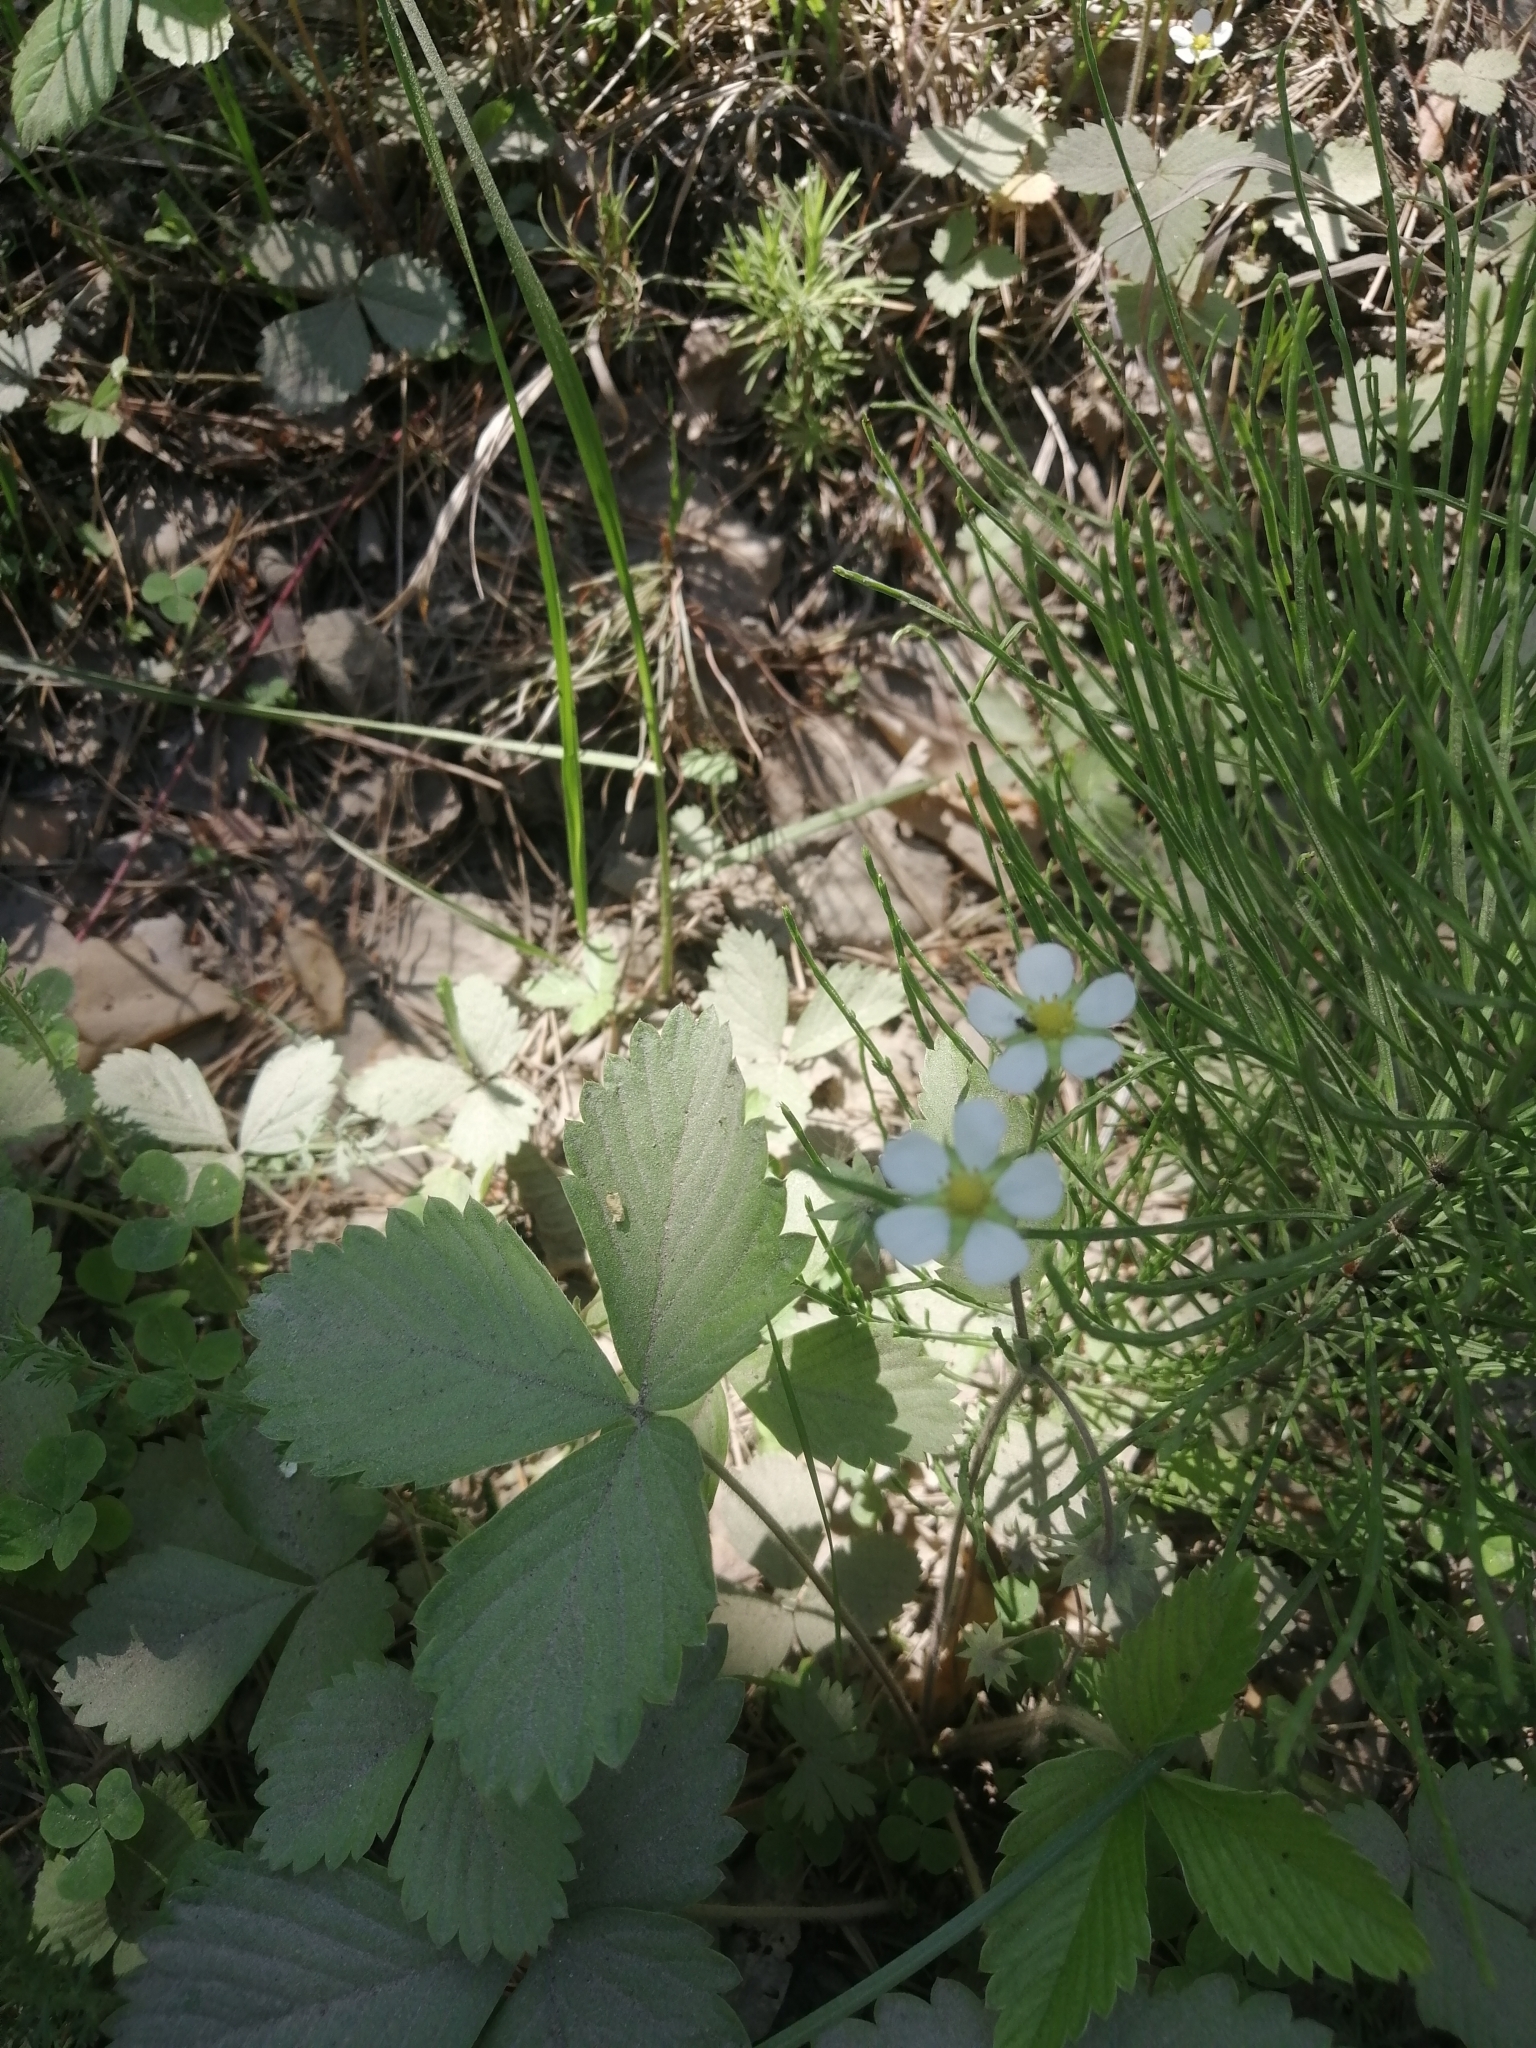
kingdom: Plantae
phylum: Tracheophyta
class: Magnoliopsida
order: Rosales
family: Rosaceae
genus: Fragaria
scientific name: Fragaria vesca
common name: Wild strawberry
